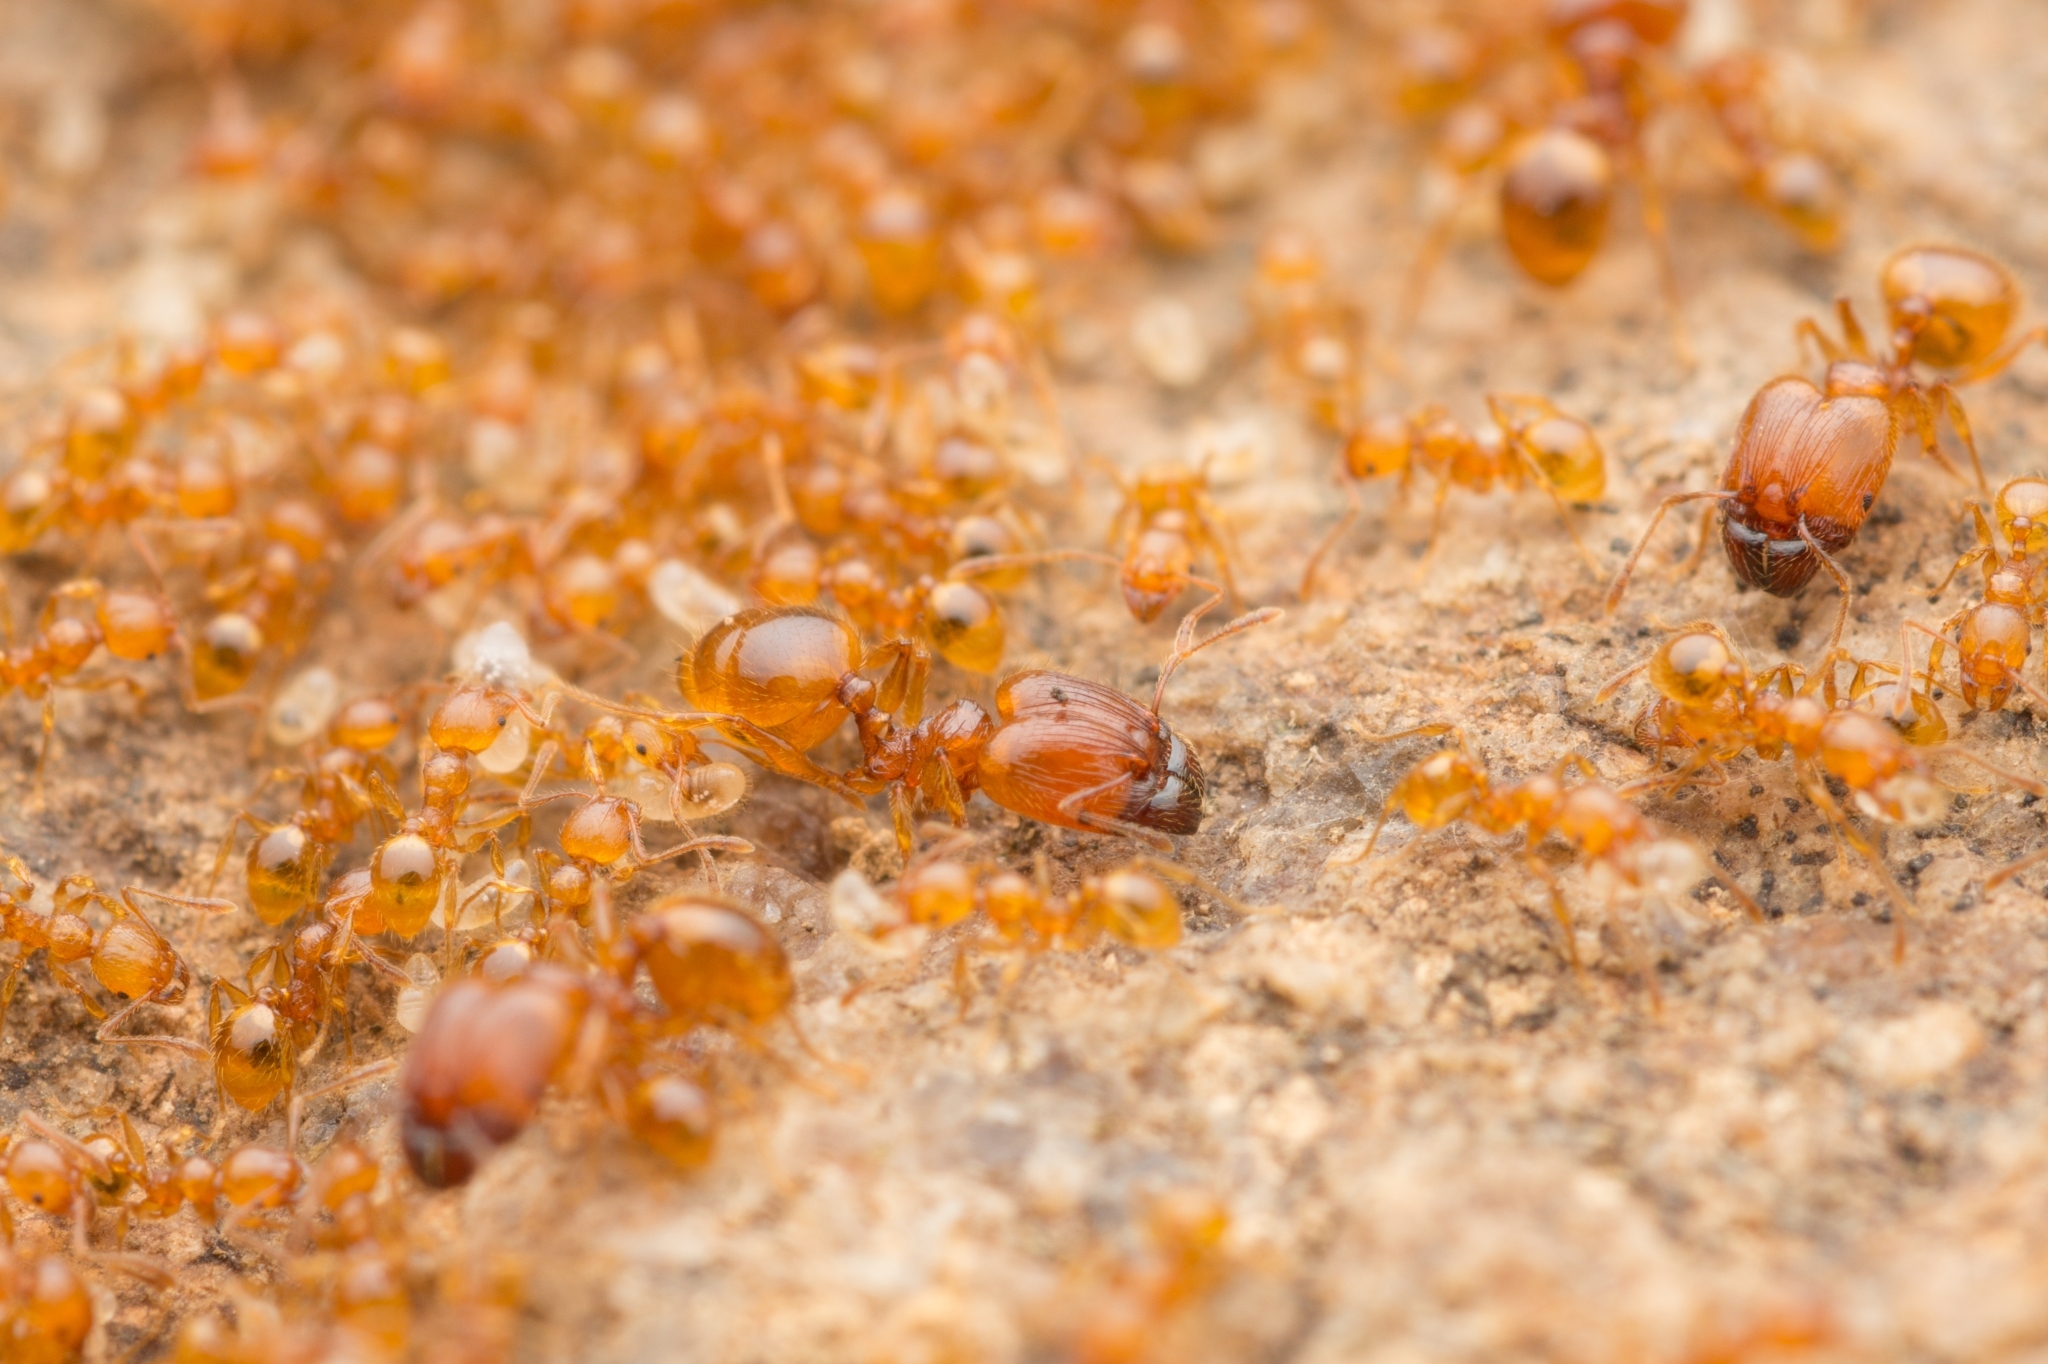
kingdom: Animalia
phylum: Arthropoda
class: Insecta
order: Hymenoptera
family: Formicidae
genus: Pheidole
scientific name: Pheidole fervida
